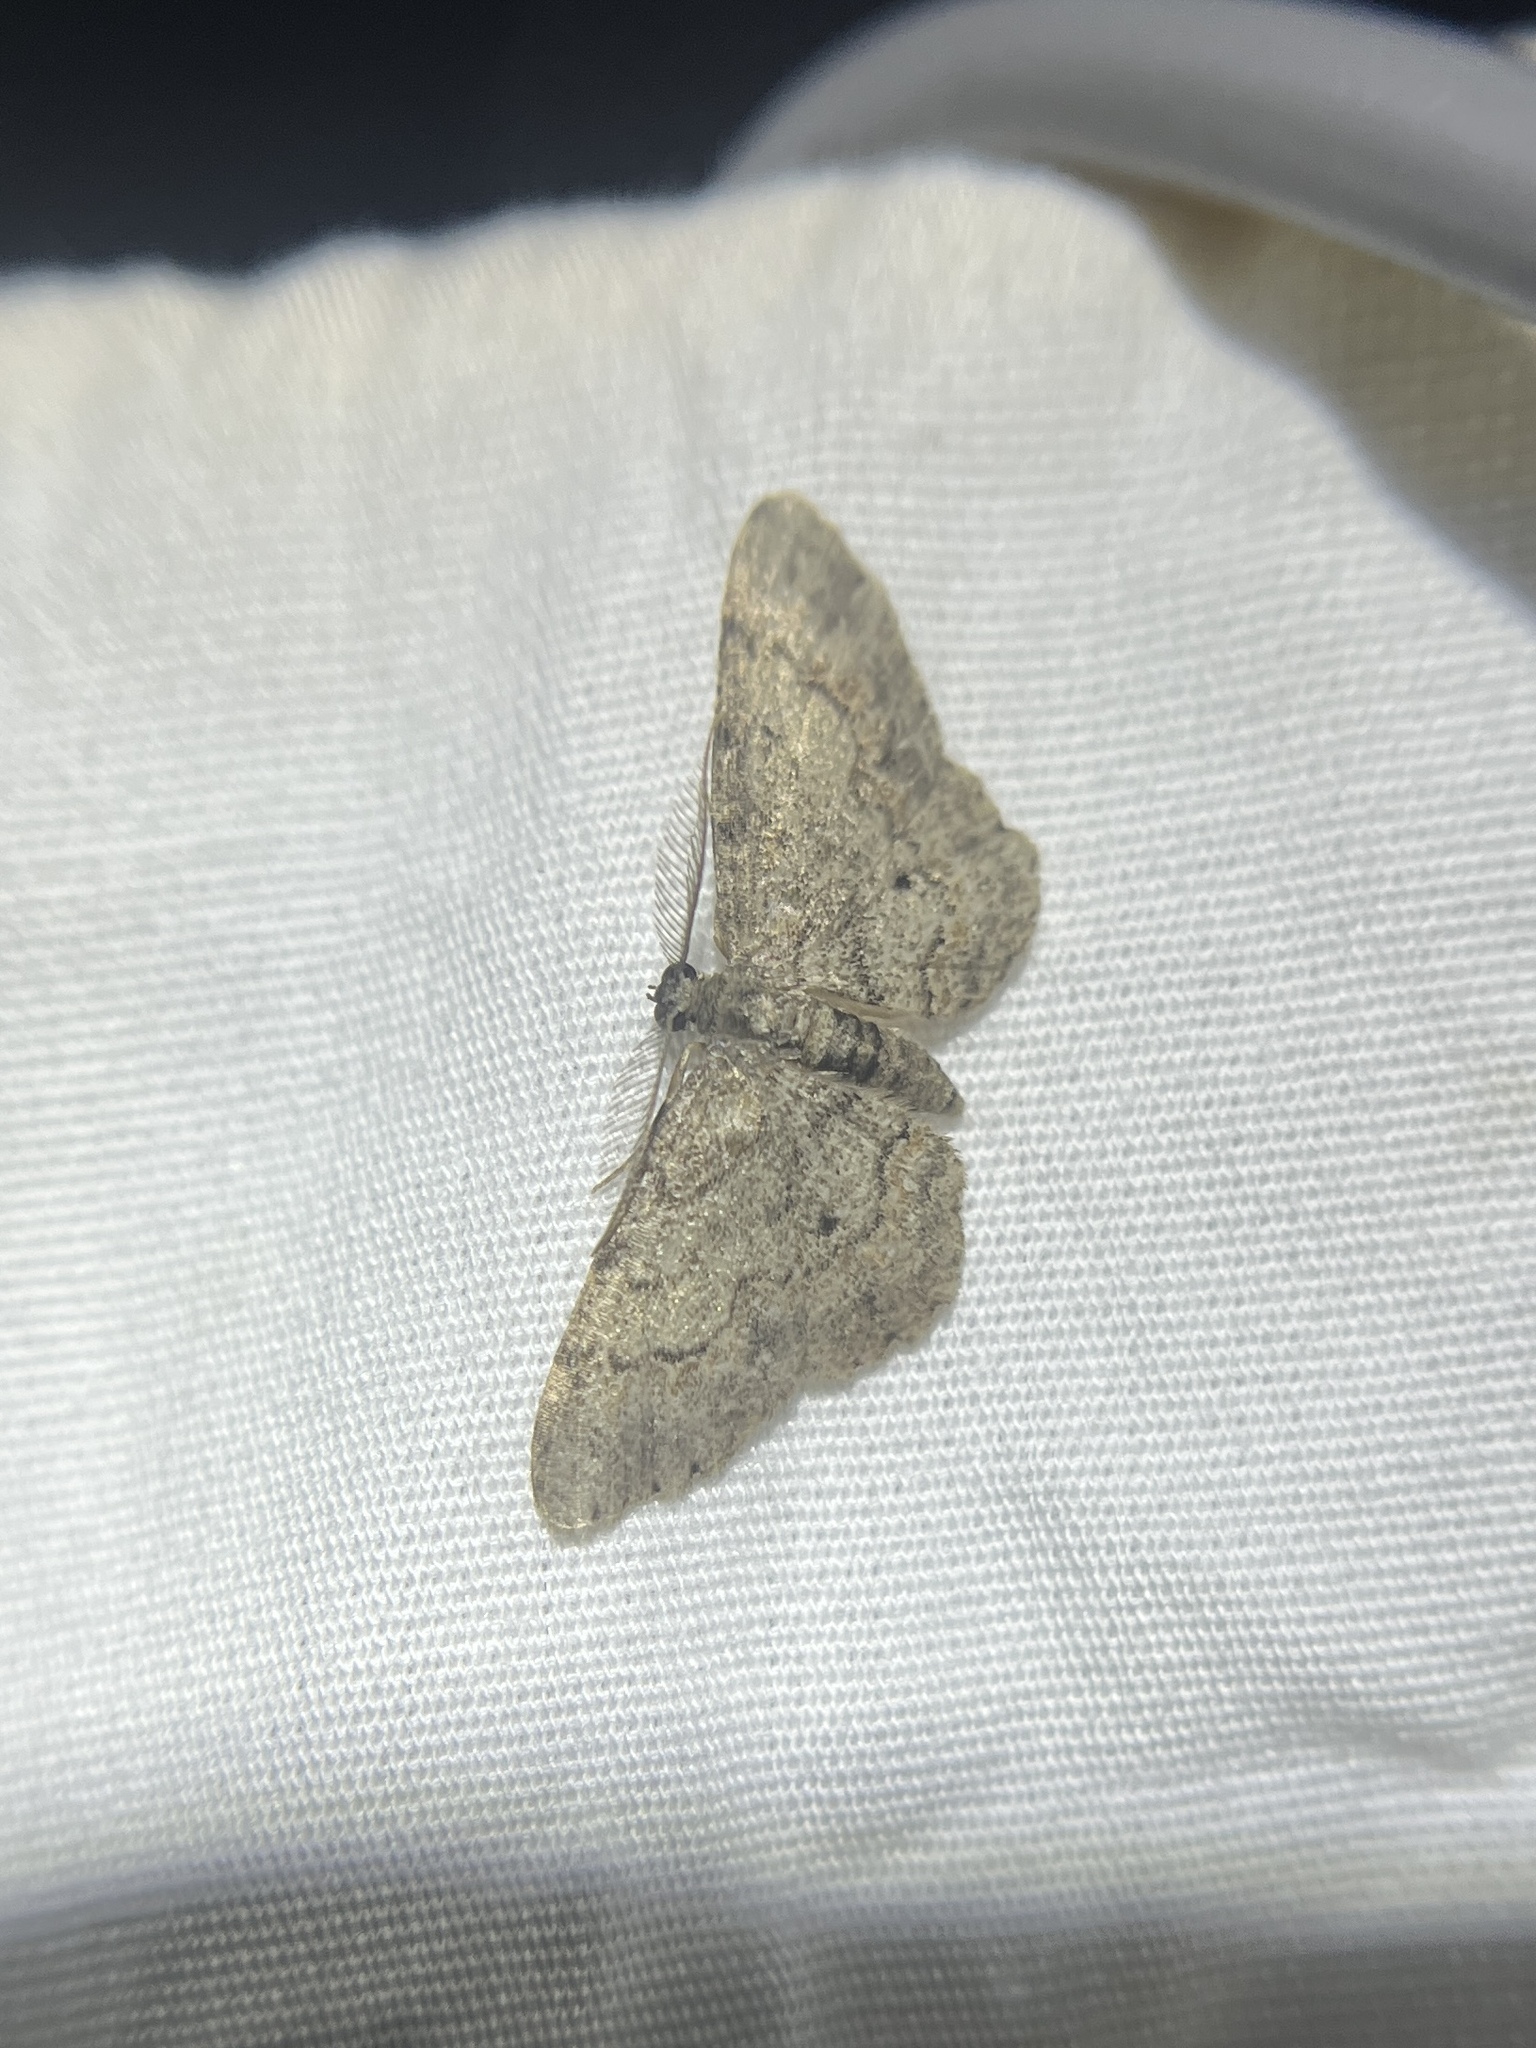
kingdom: Animalia
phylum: Arthropoda
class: Insecta
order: Lepidoptera
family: Geometridae
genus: Glenoides
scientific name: Glenoides texanaria
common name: Texas gray
